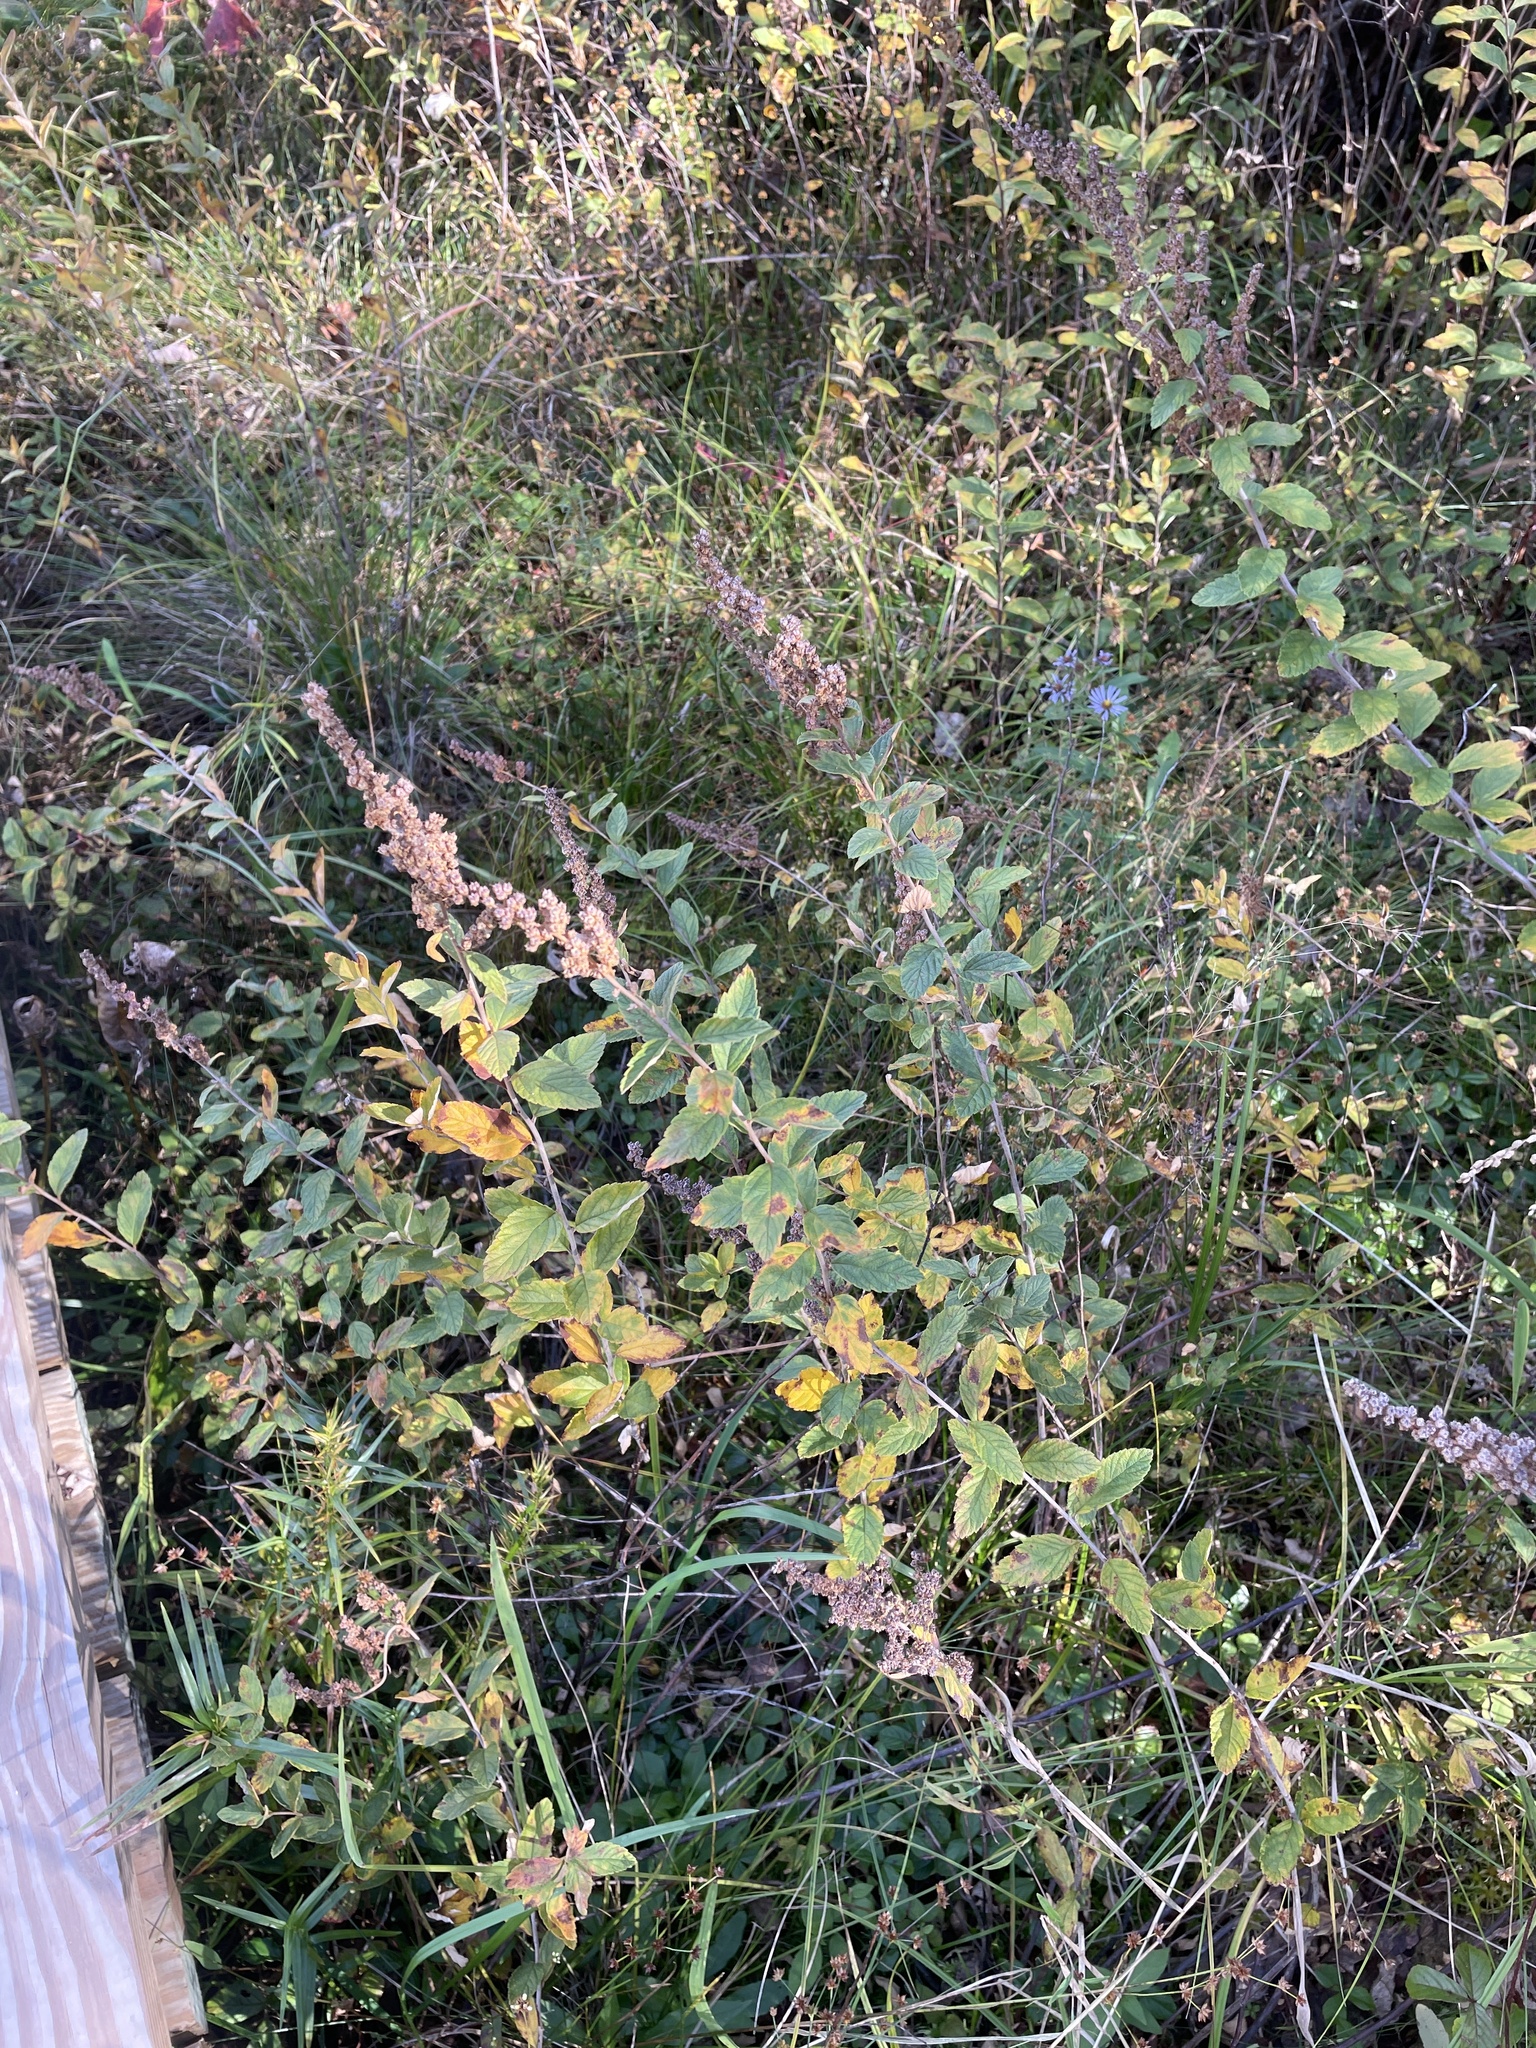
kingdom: Plantae
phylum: Tracheophyta
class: Magnoliopsida
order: Rosales
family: Rosaceae
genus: Spiraea
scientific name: Spiraea tomentosa
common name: Hardhack
